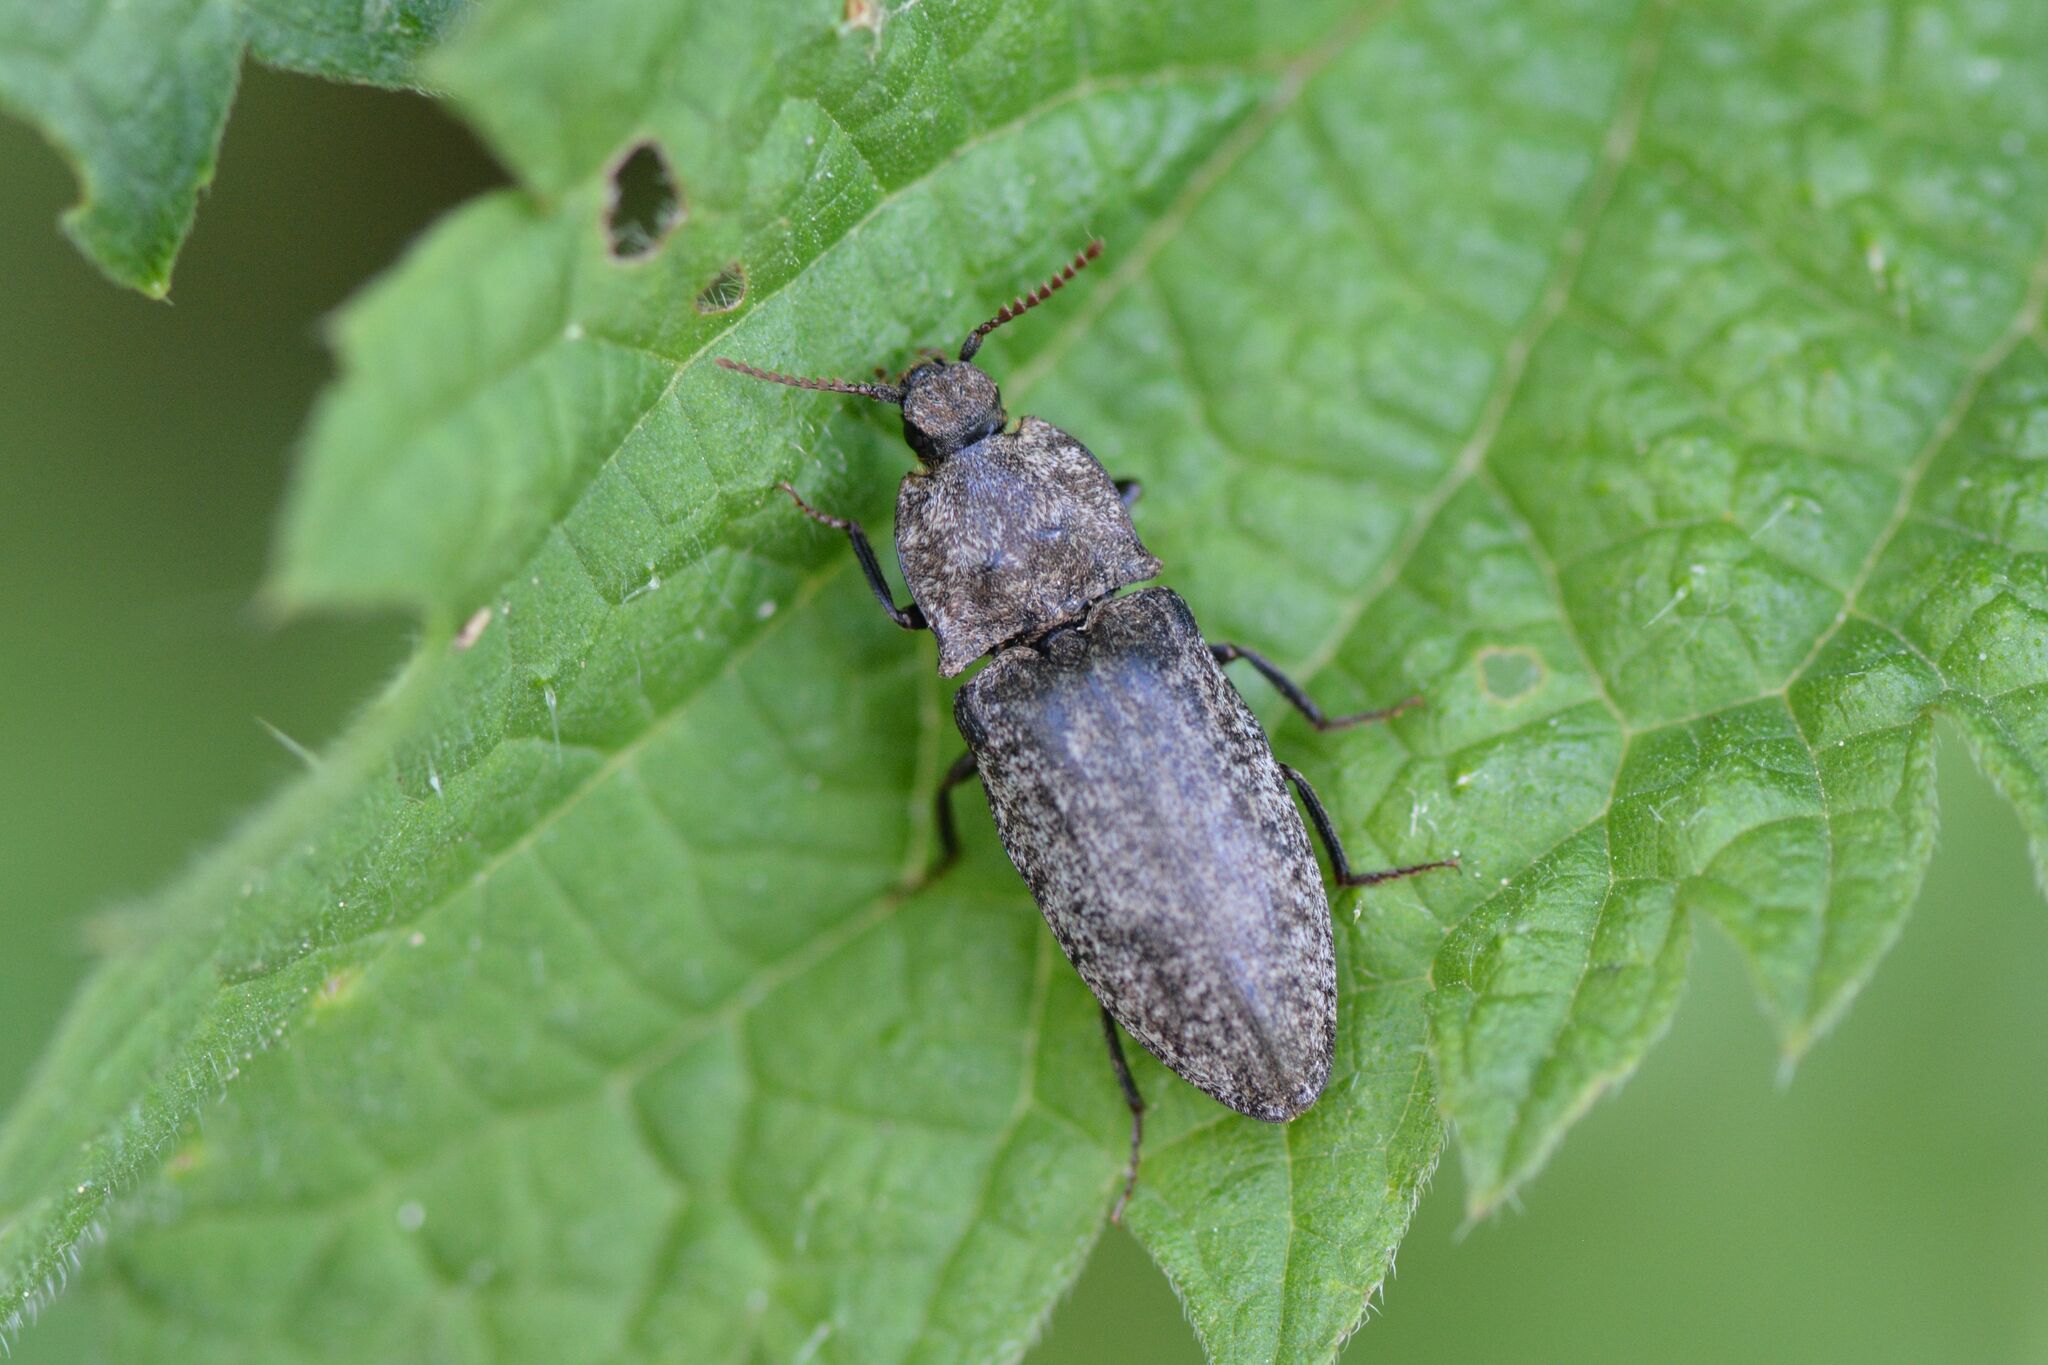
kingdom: Animalia
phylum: Arthropoda
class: Insecta
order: Coleoptera
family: Elateridae
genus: Agrypnus
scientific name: Agrypnus murinus
